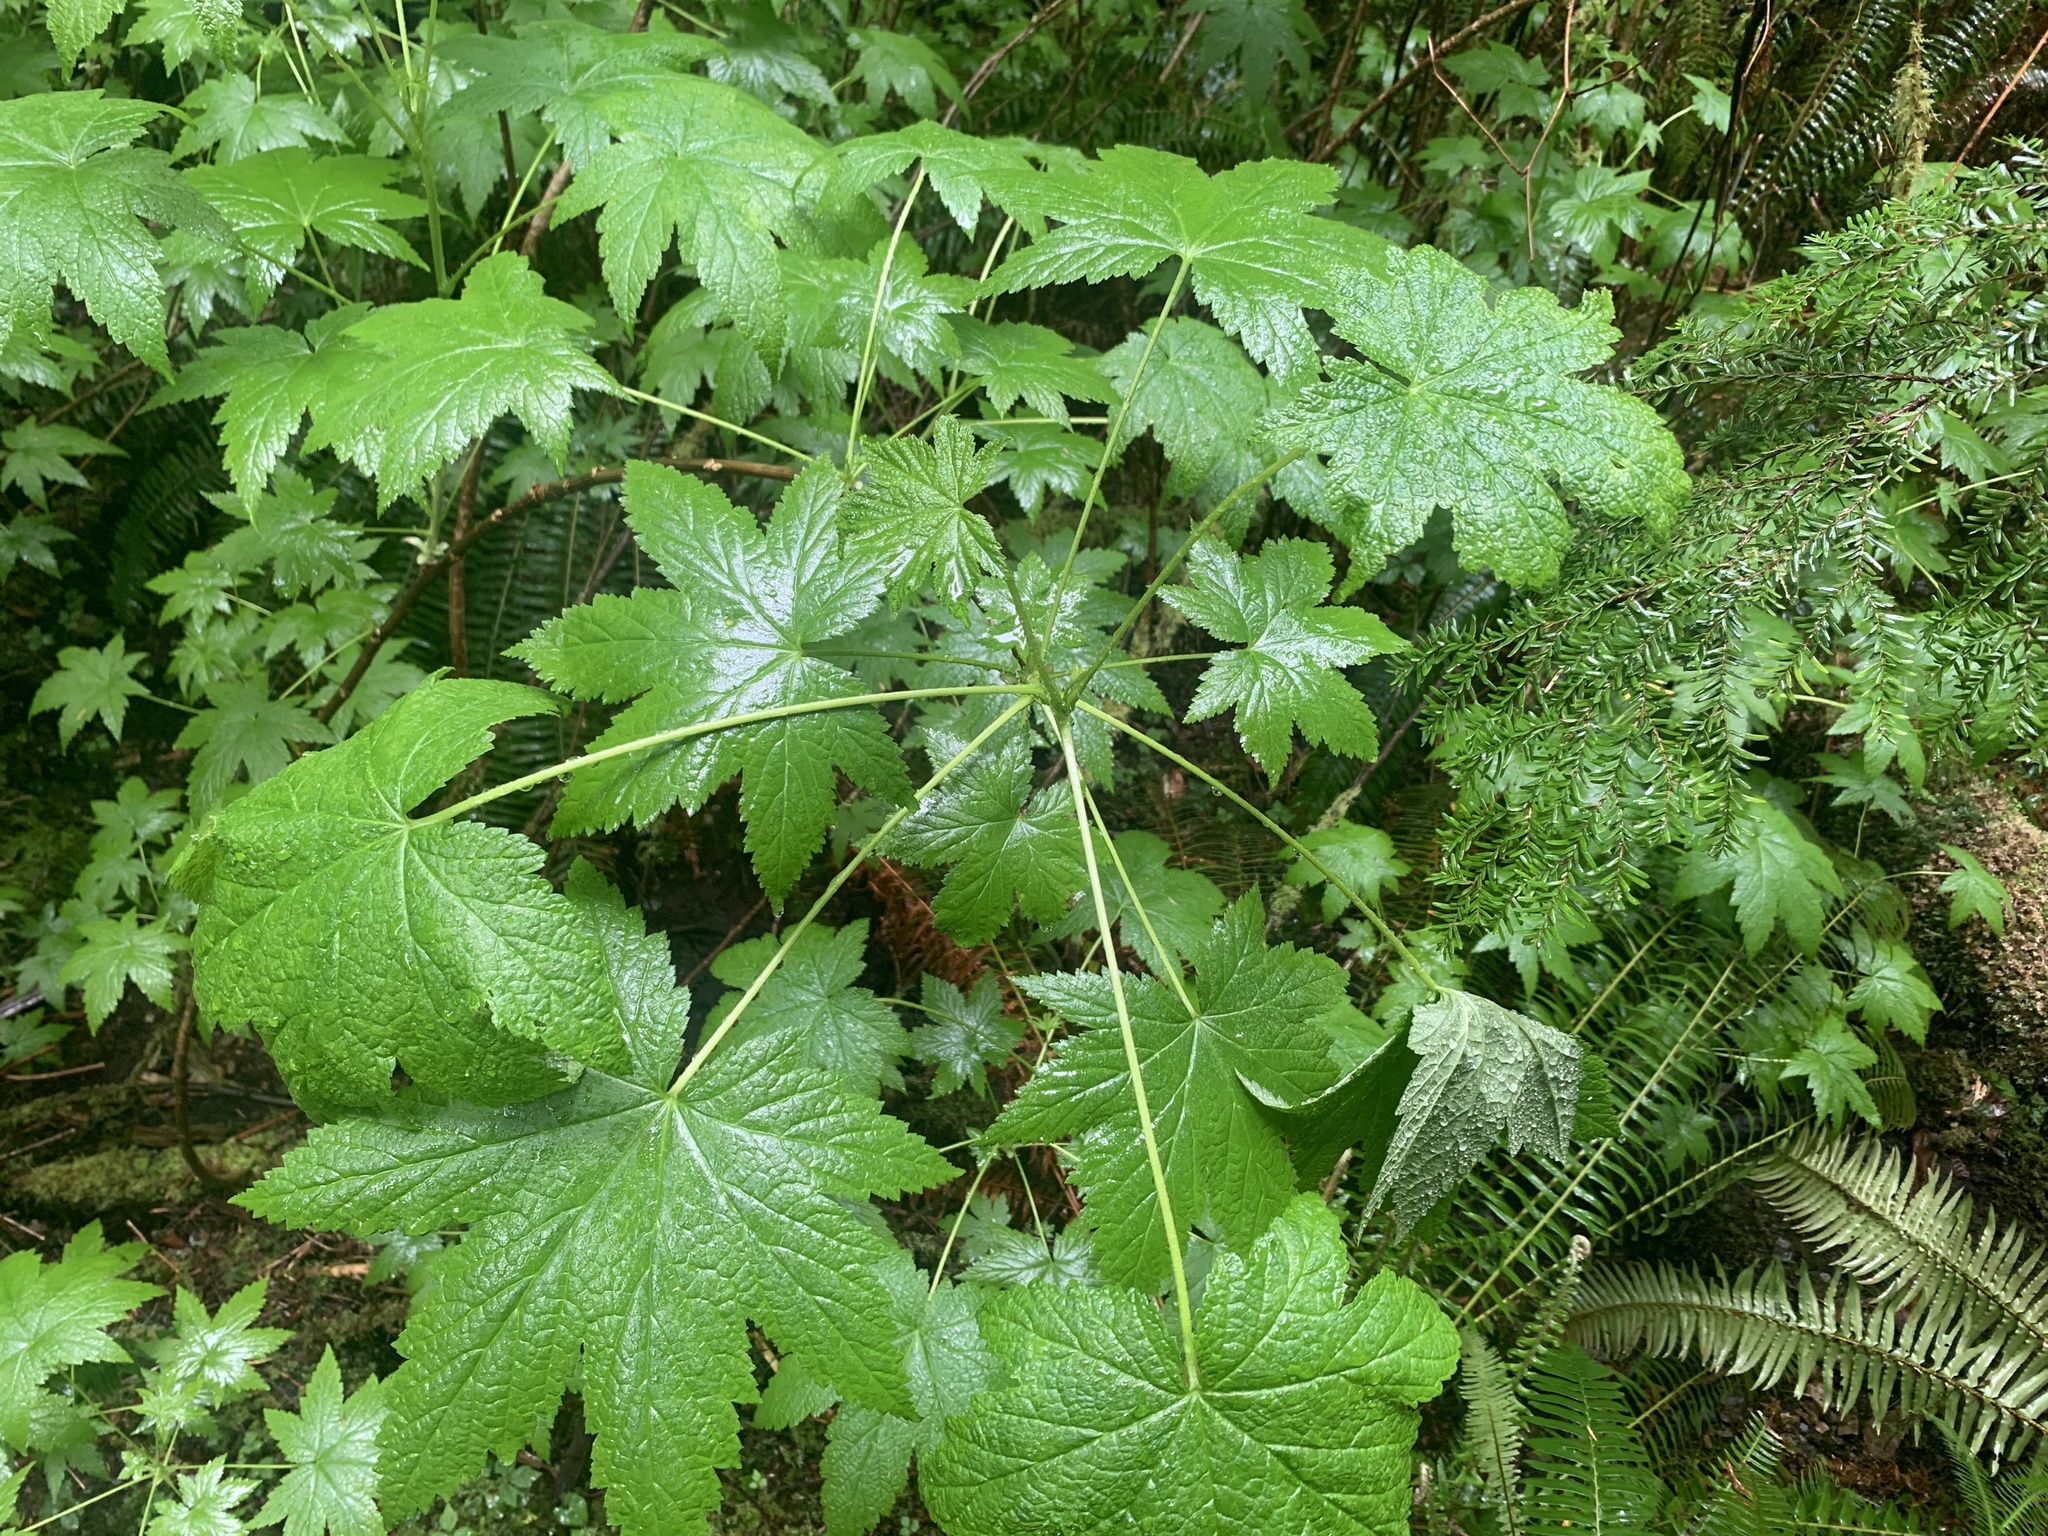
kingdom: Plantae
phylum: Tracheophyta
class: Magnoliopsida
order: Saxifragales
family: Grossulariaceae
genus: Ribes
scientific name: Ribes bracteosum
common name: California black currant
